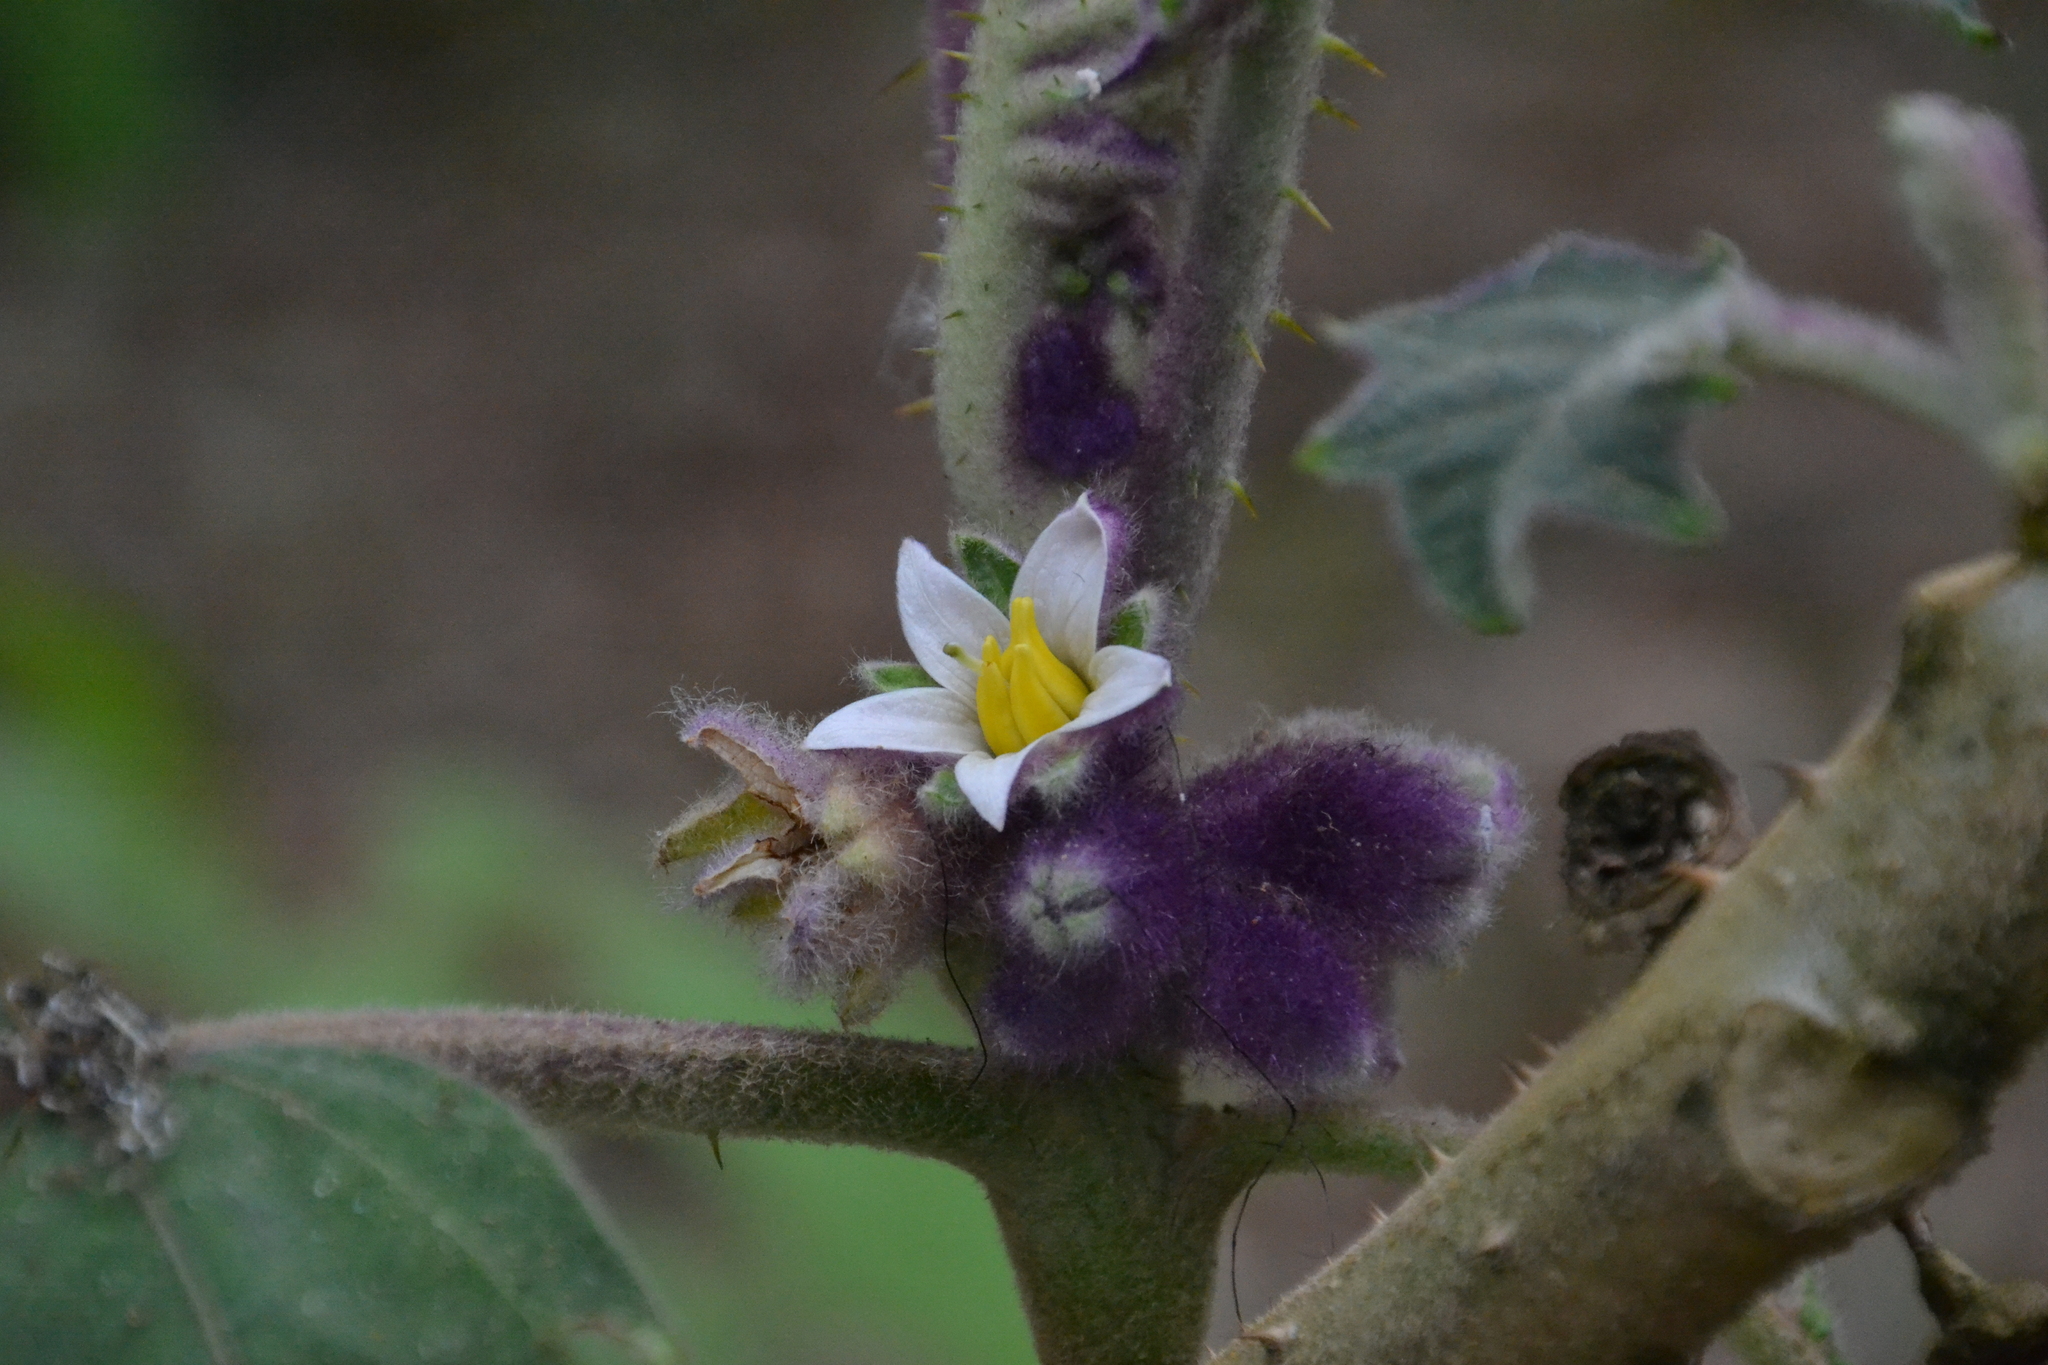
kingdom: Plantae
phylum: Tracheophyta
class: Magnoliopsida
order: Solanales
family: Solanaceae
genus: Solanum
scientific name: Solanum quitoense
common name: Quito-orange
